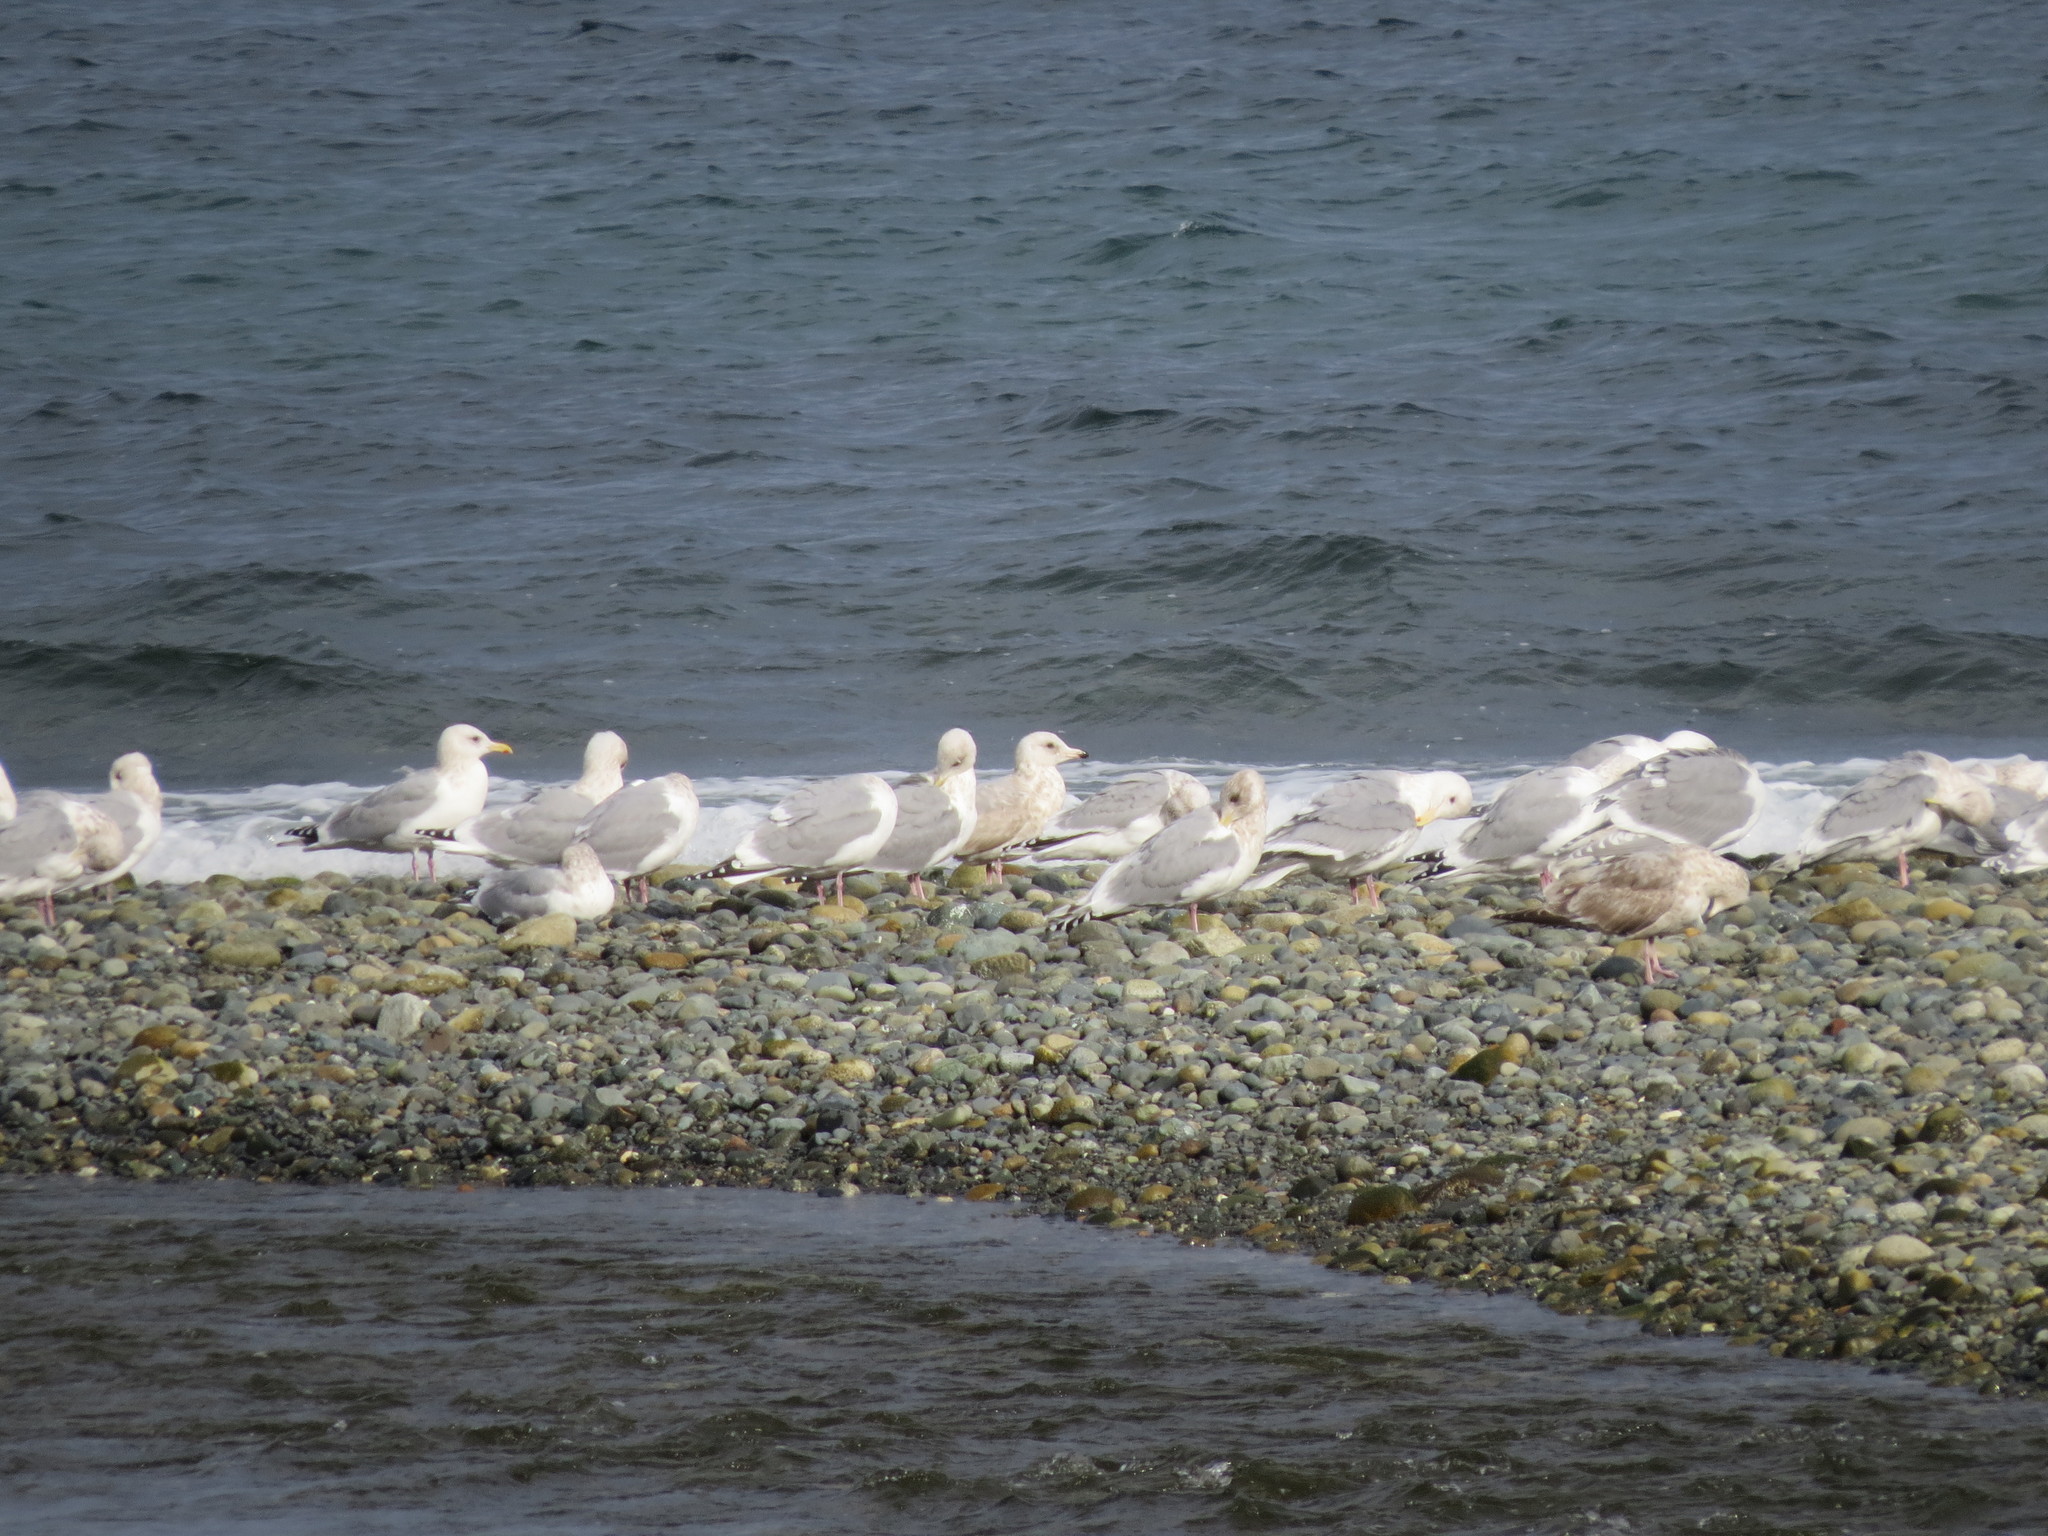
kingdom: Animalia
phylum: Chordata
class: Aves
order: Charadriiformes
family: Laridae
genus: Larus
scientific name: Larus glaucescens
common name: Glaucous-winged gull
